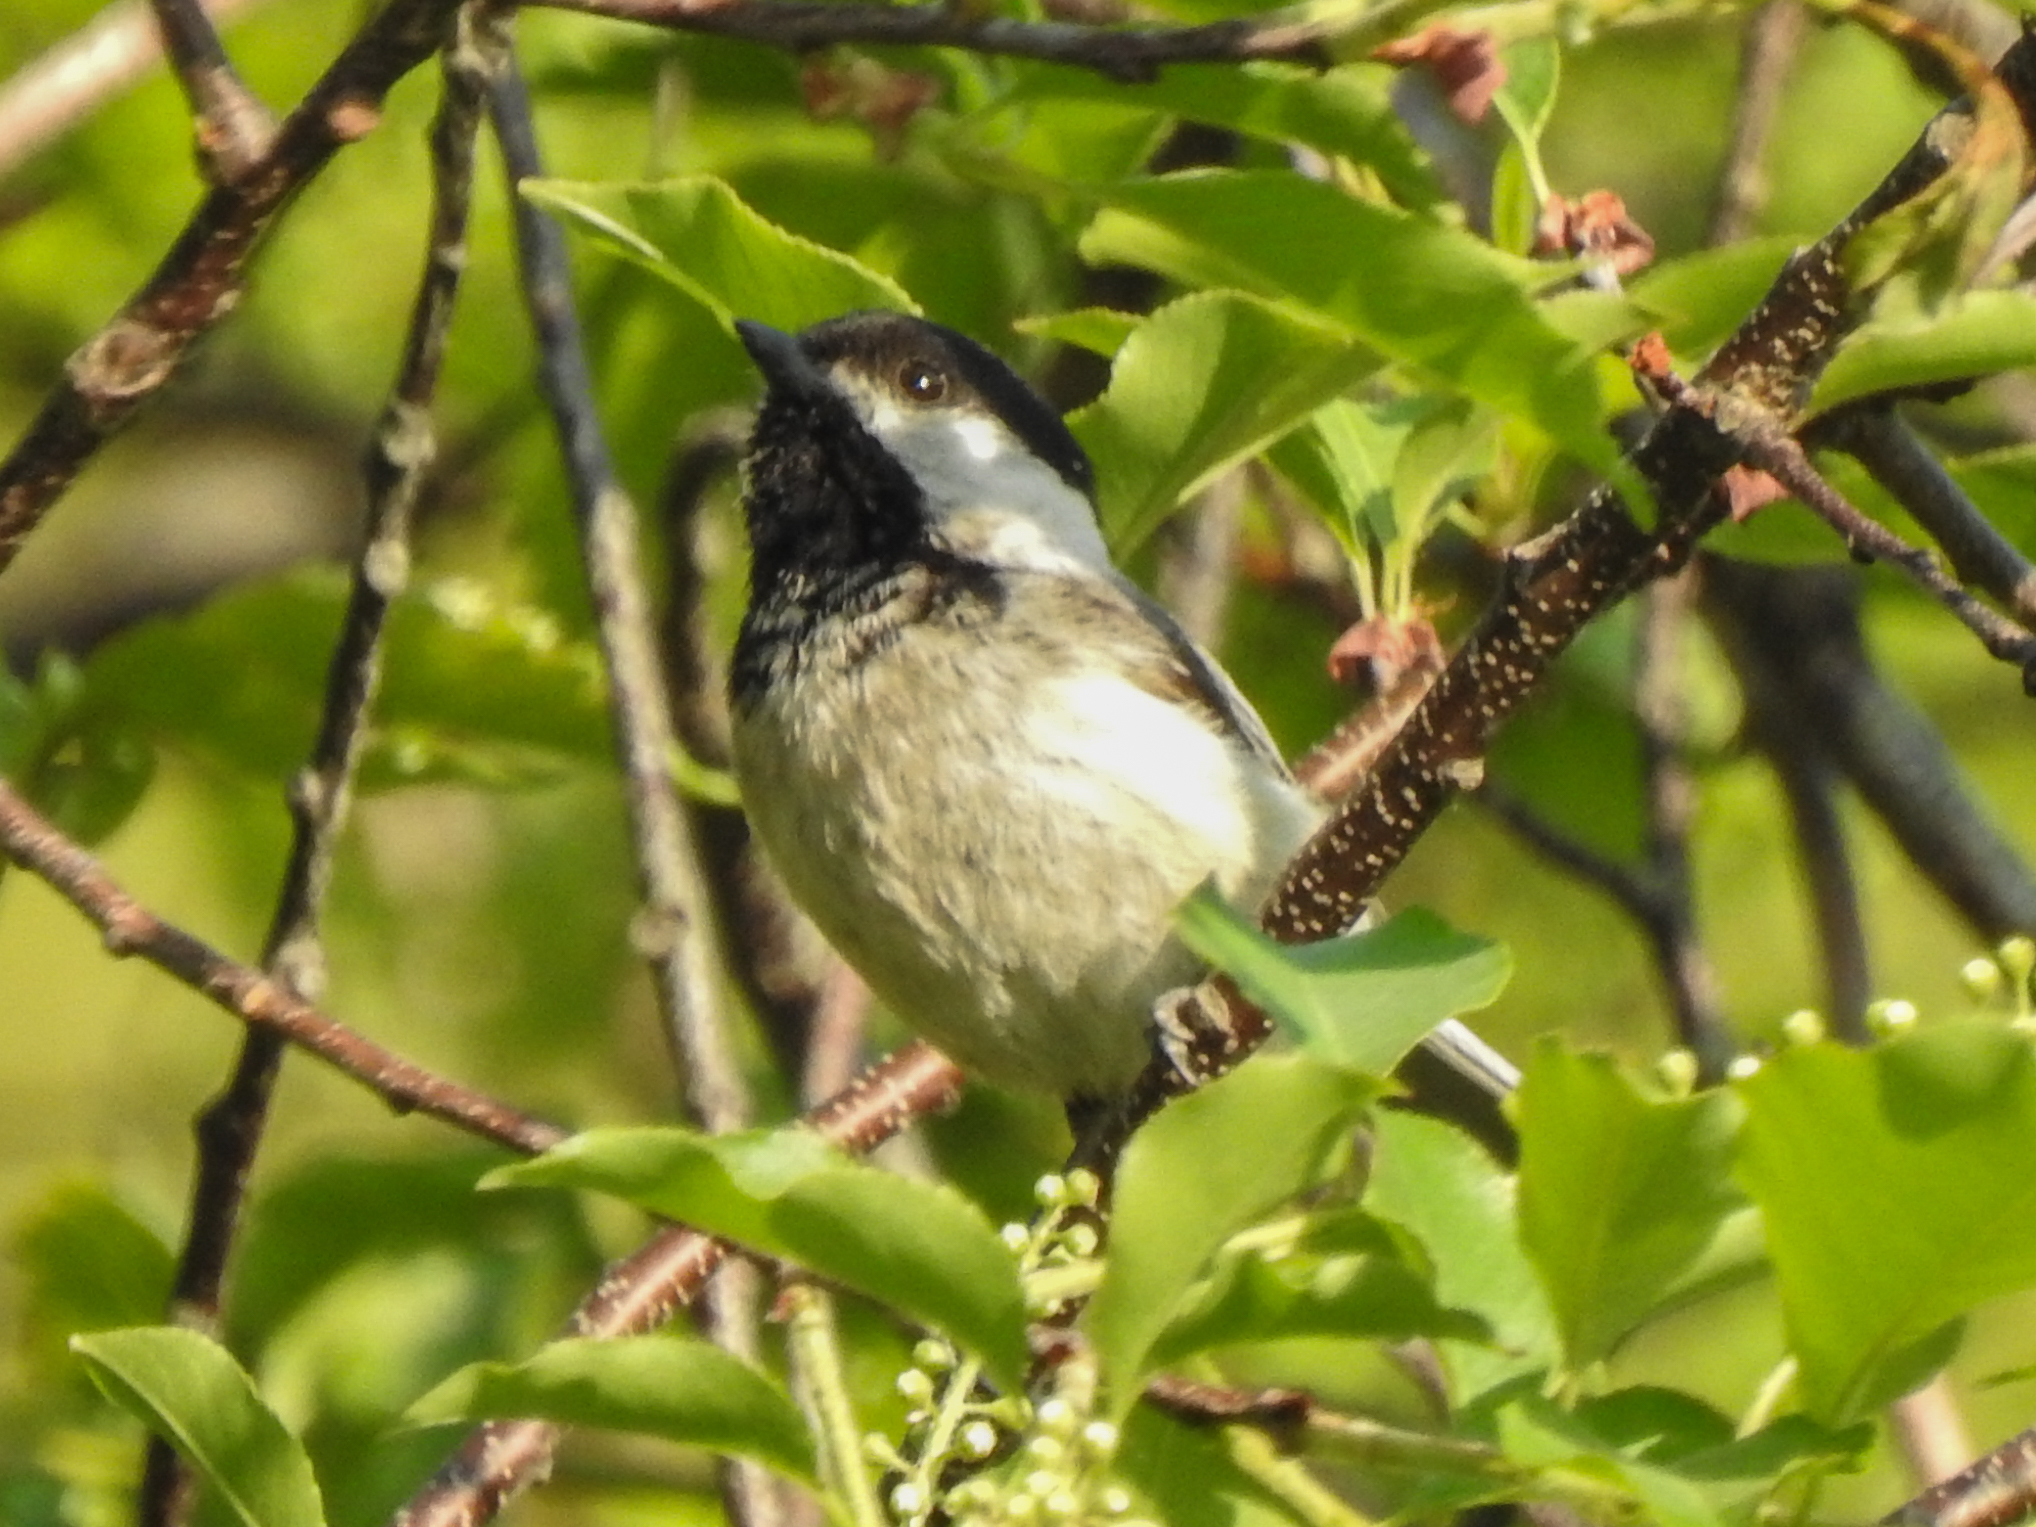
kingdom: Animalia
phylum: Chordata
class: Aves
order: Passeriformes
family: Paridae
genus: Poecile
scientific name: Poecile atricapillus
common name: Black-capped chickadee
